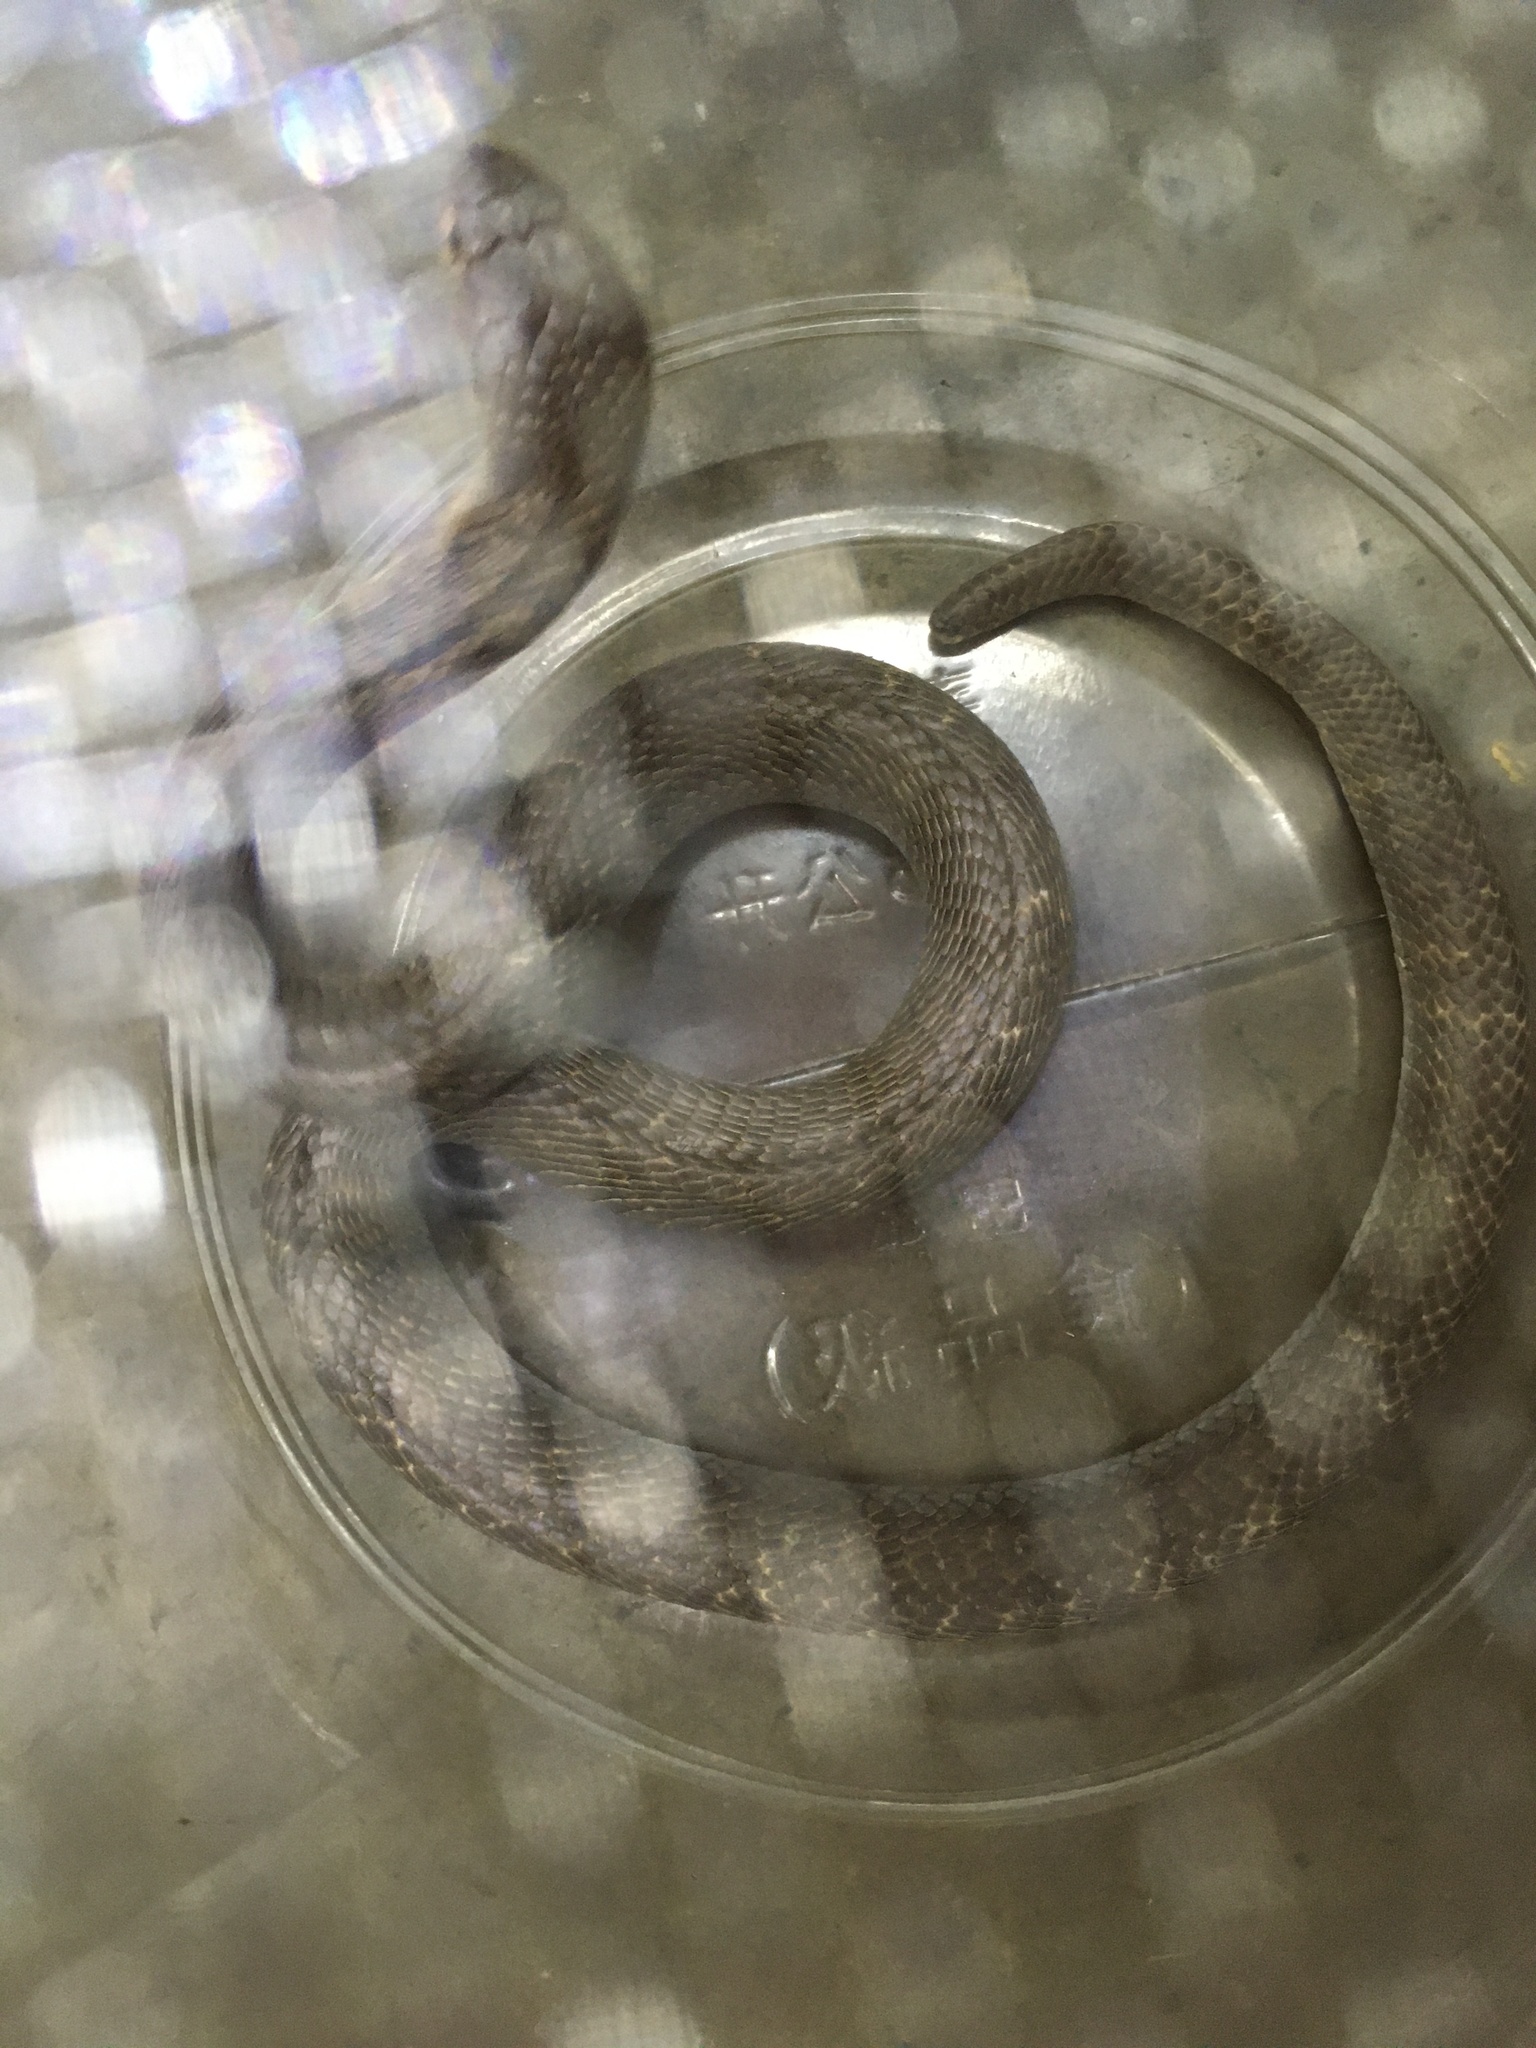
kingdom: Animalia
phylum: Chordata
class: Squamata
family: Elapidae
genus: Naja
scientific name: Naja atra
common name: Chinese cobra
